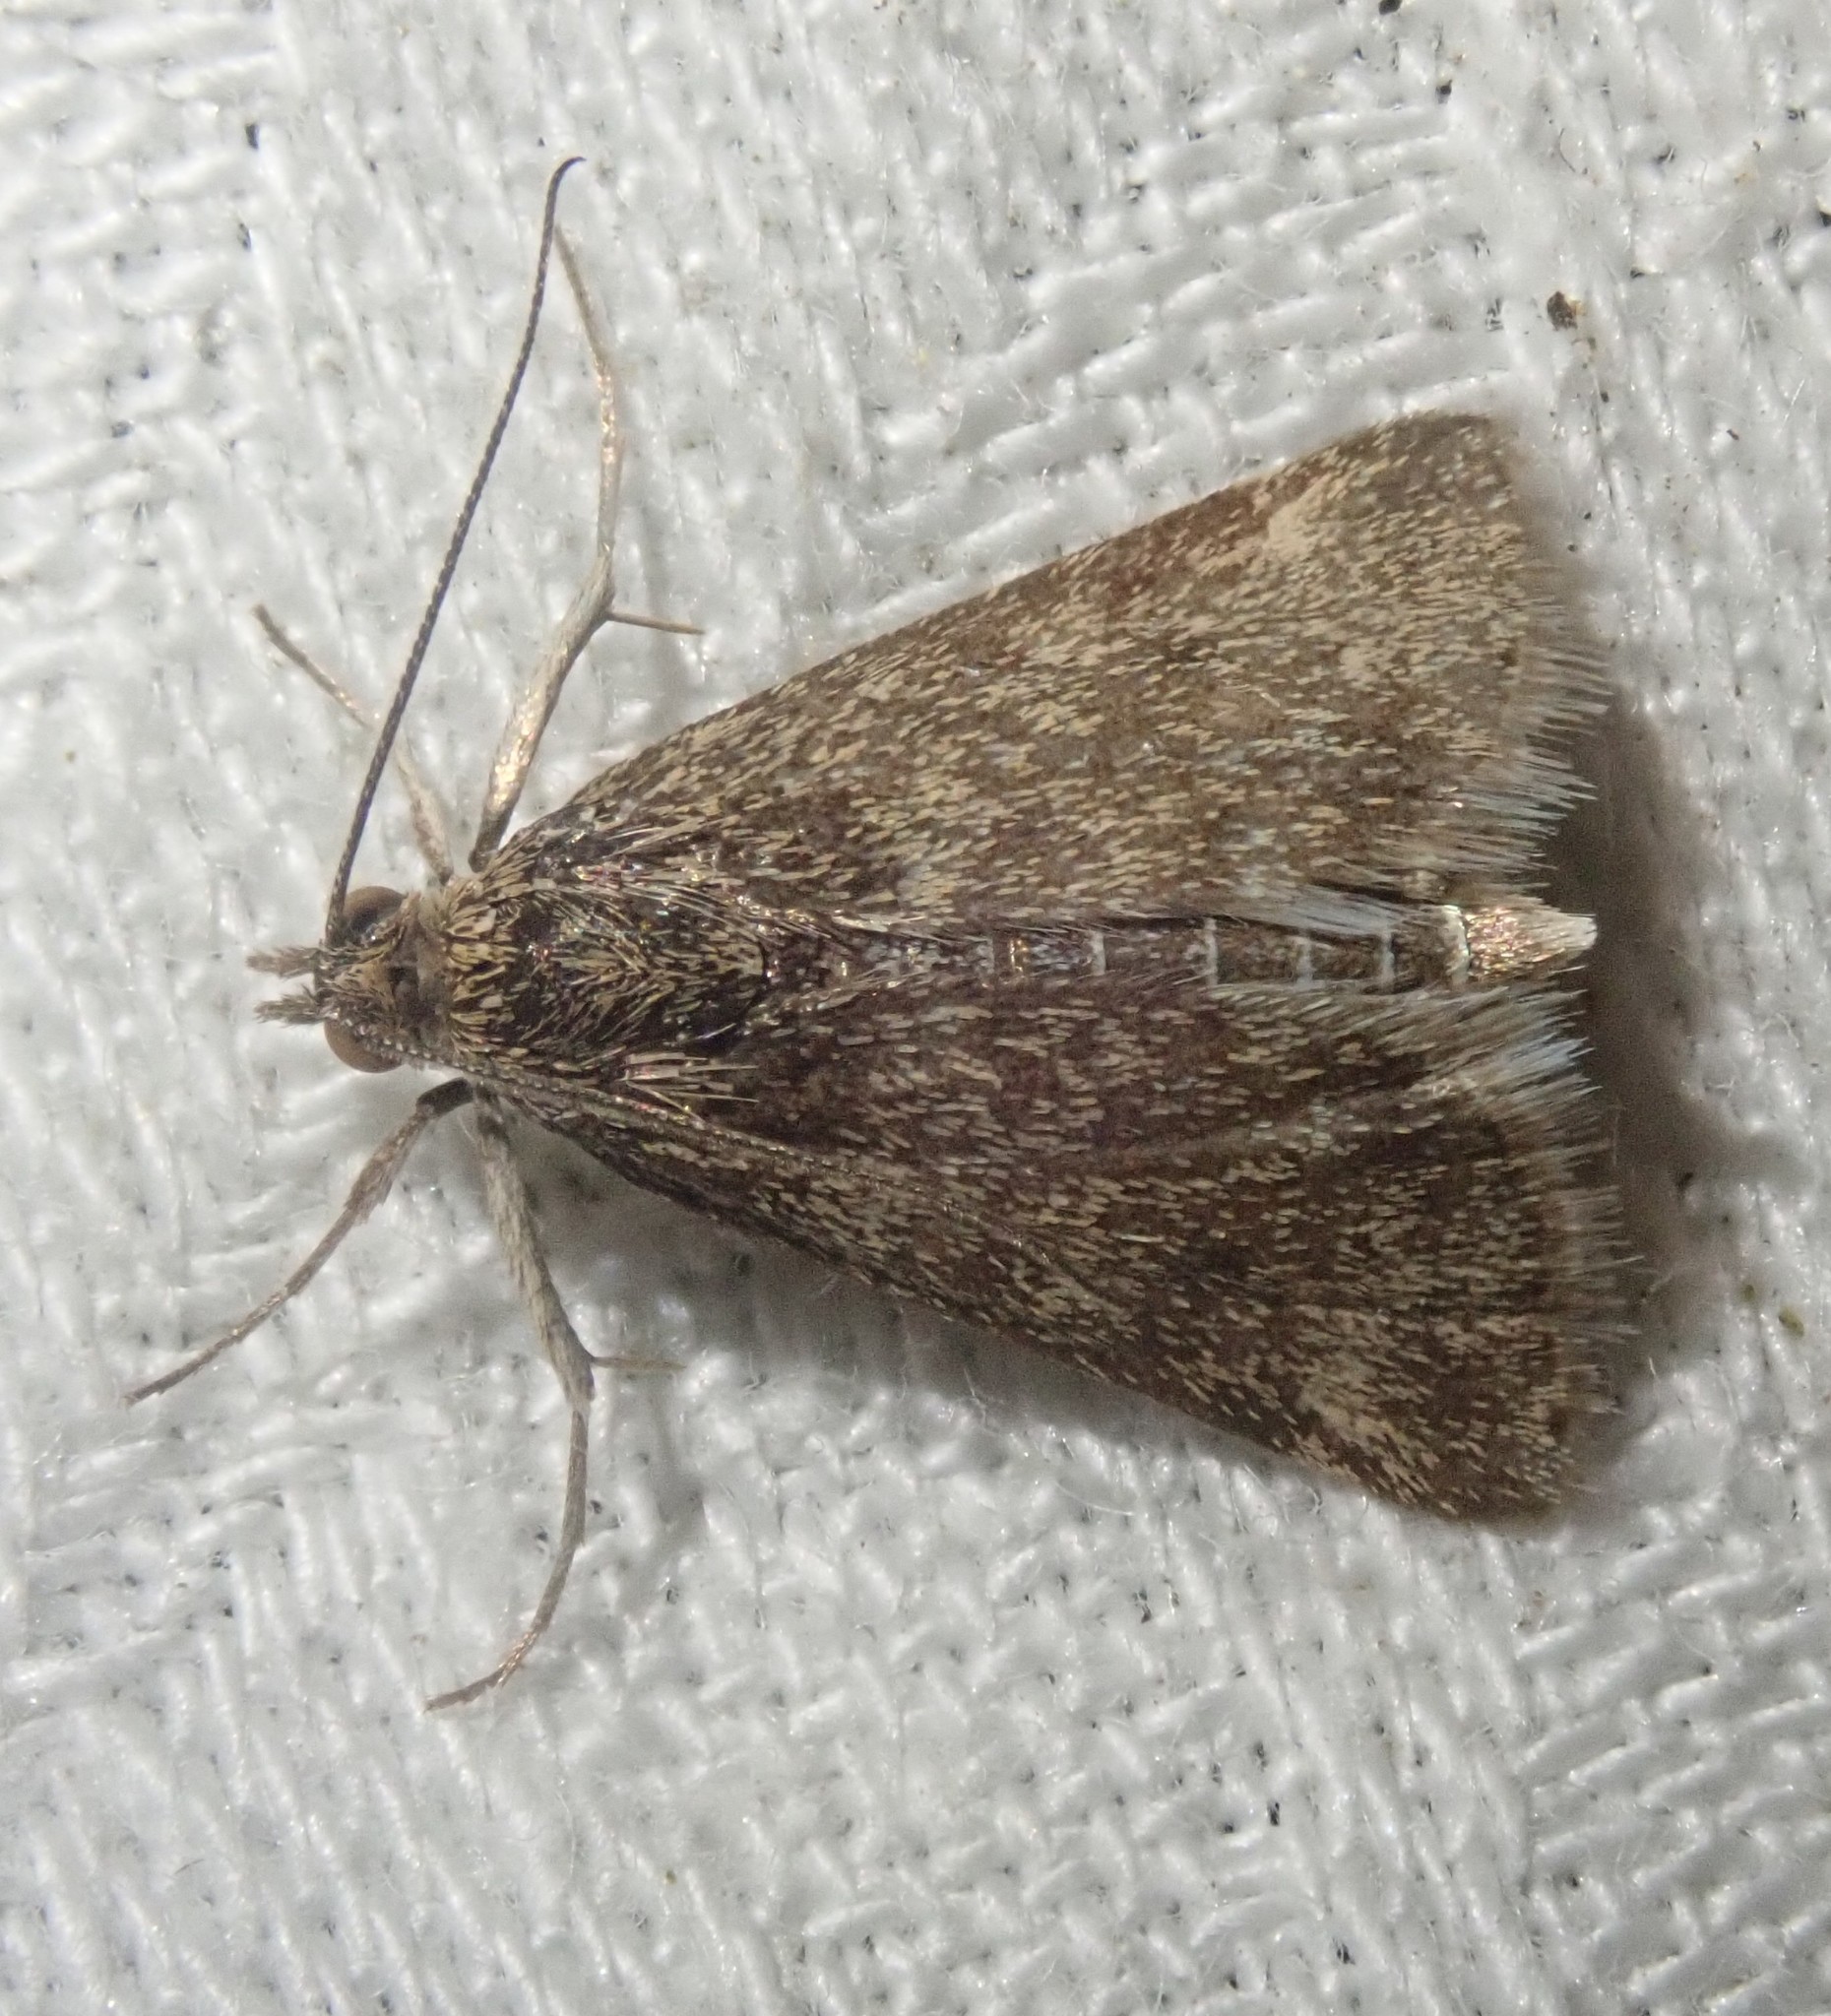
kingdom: Animalia
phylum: Arthropoda
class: Insecta
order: Lepidoptera
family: Crambidae
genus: Pyrausta
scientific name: Pyrausta despicata
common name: Straw-barred pearl
